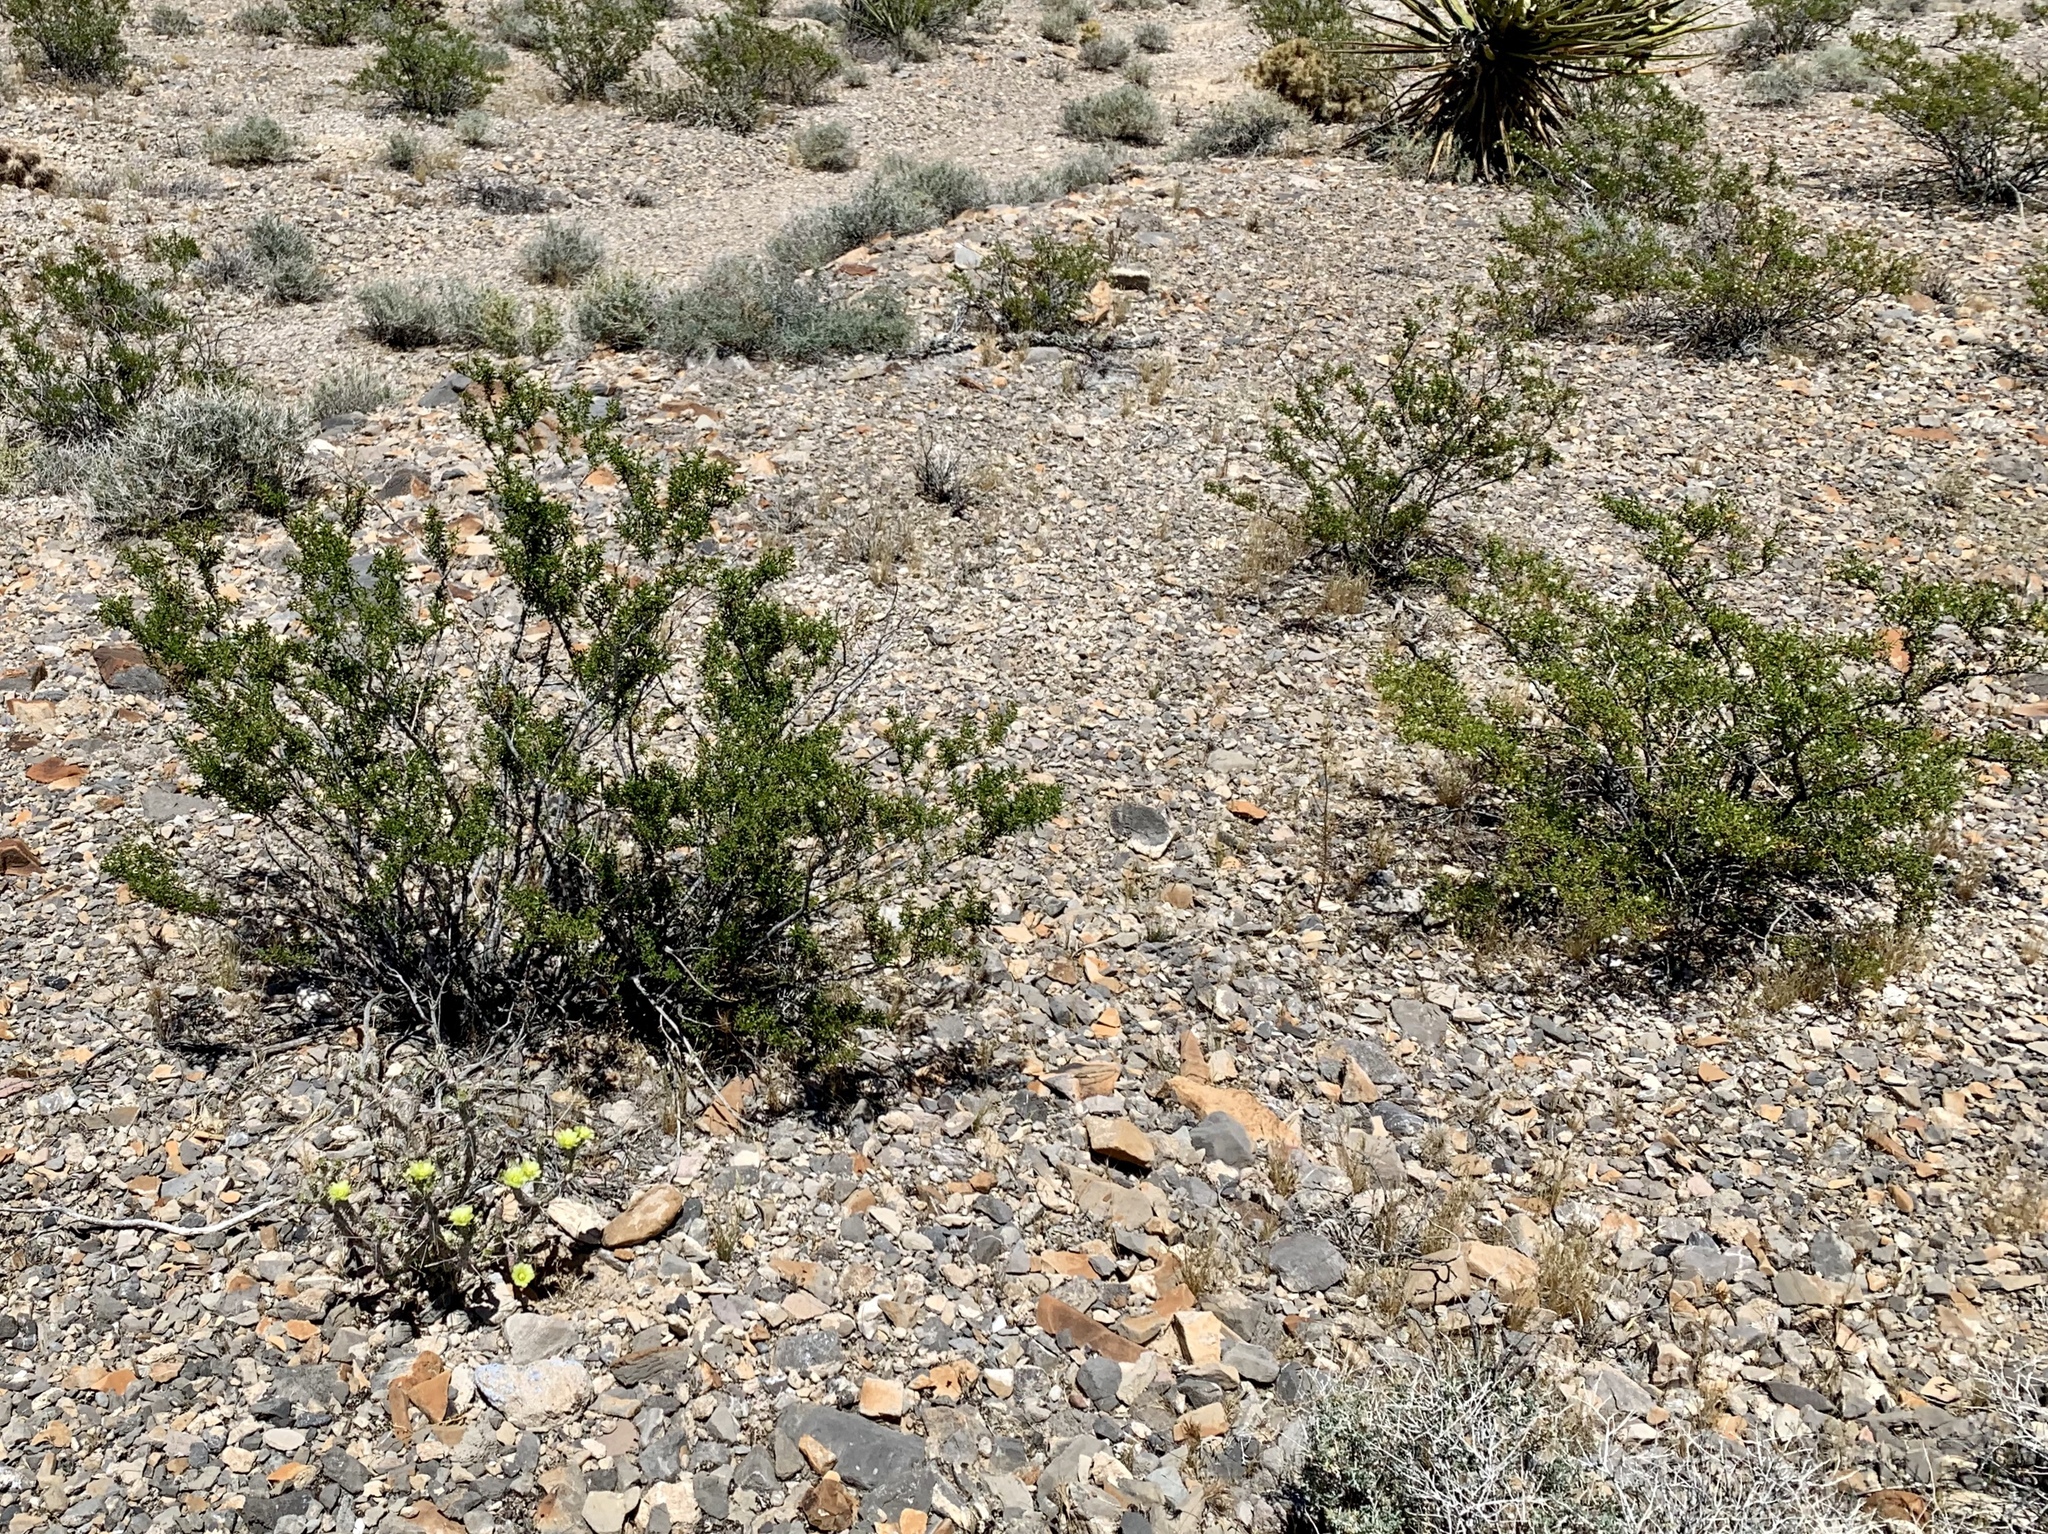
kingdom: Plantae
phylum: Tracheophyta
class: Magnoliopsida
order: Zygophyllales
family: Zygophyllaceae
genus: Larrea
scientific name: Larrea tridentata
